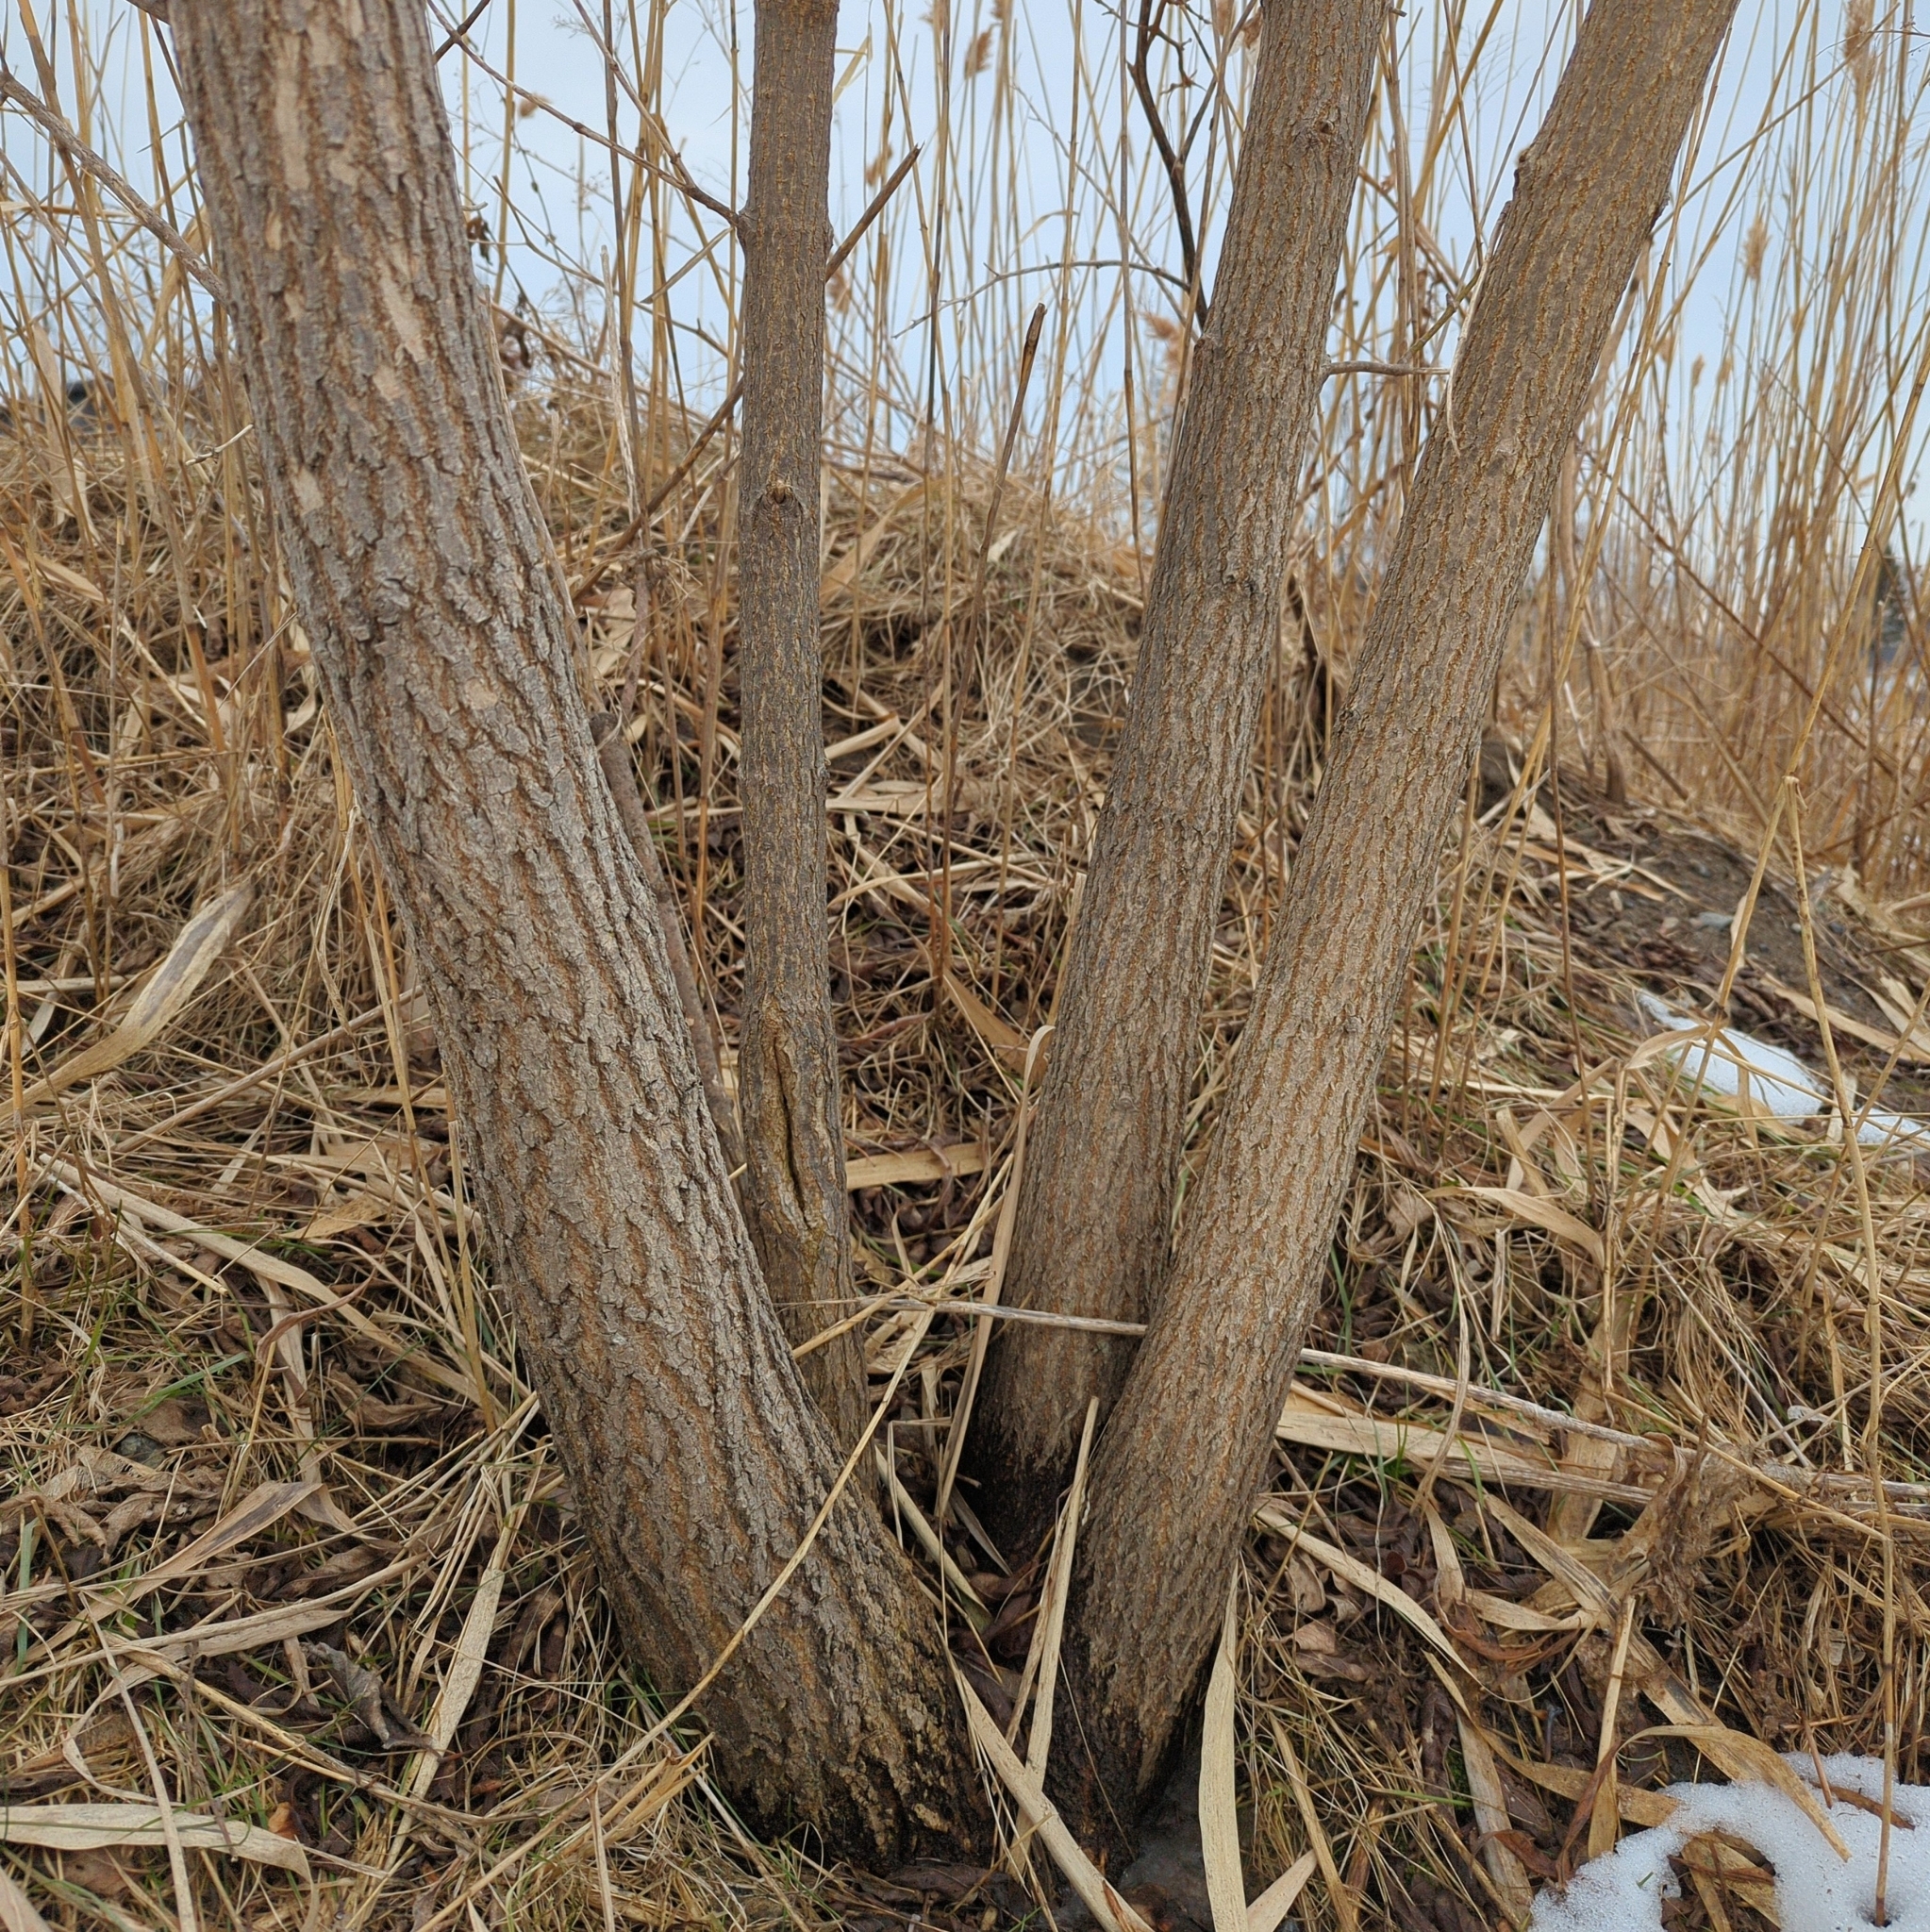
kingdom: Plantae
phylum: Tracheophyta
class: Magnoliopsida
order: Sapindales
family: Sapindaceae
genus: Acer
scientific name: Acer negundo
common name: Ashleaf maple
